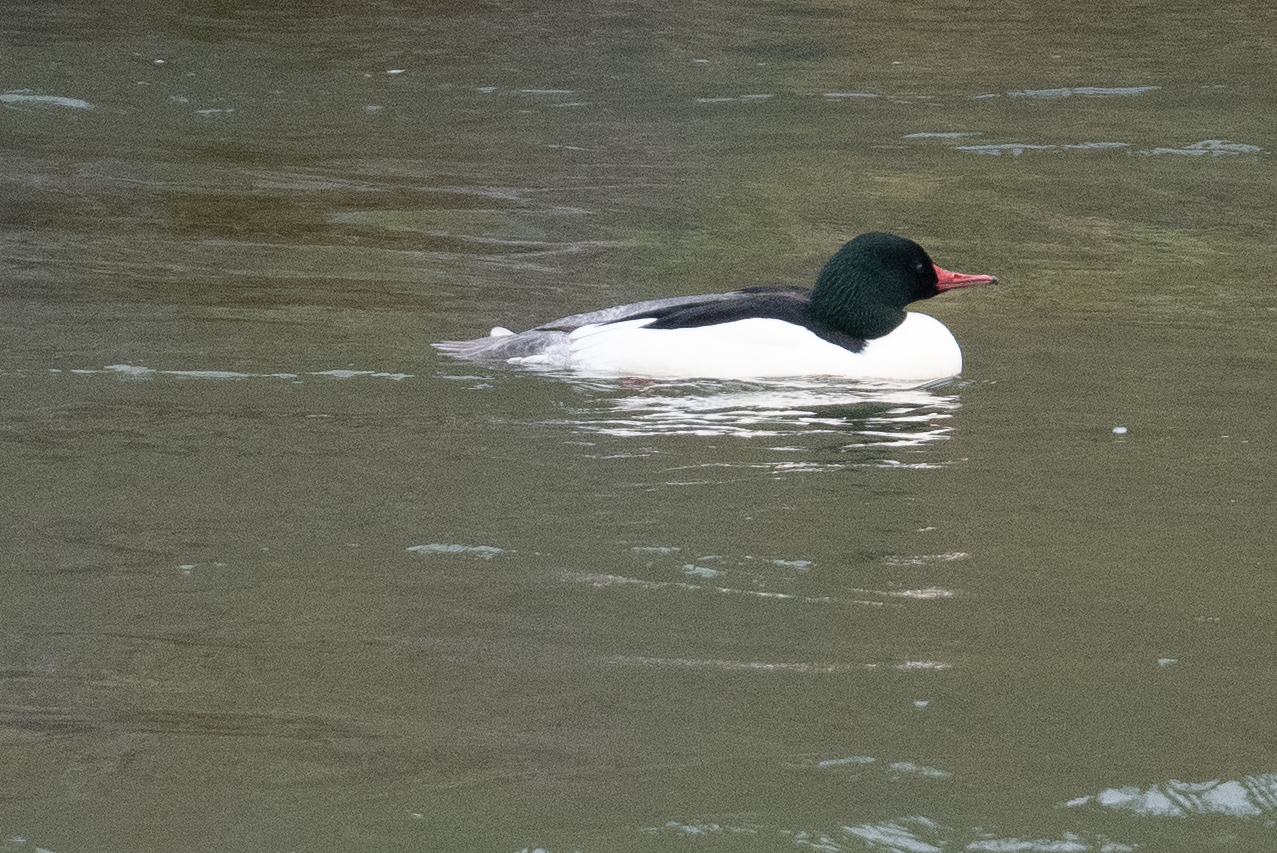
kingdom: Animalia
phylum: Chordata
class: Aves
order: Anseriformes
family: Anatidae
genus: Mergus
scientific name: Mergus merganser
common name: Common merganser
